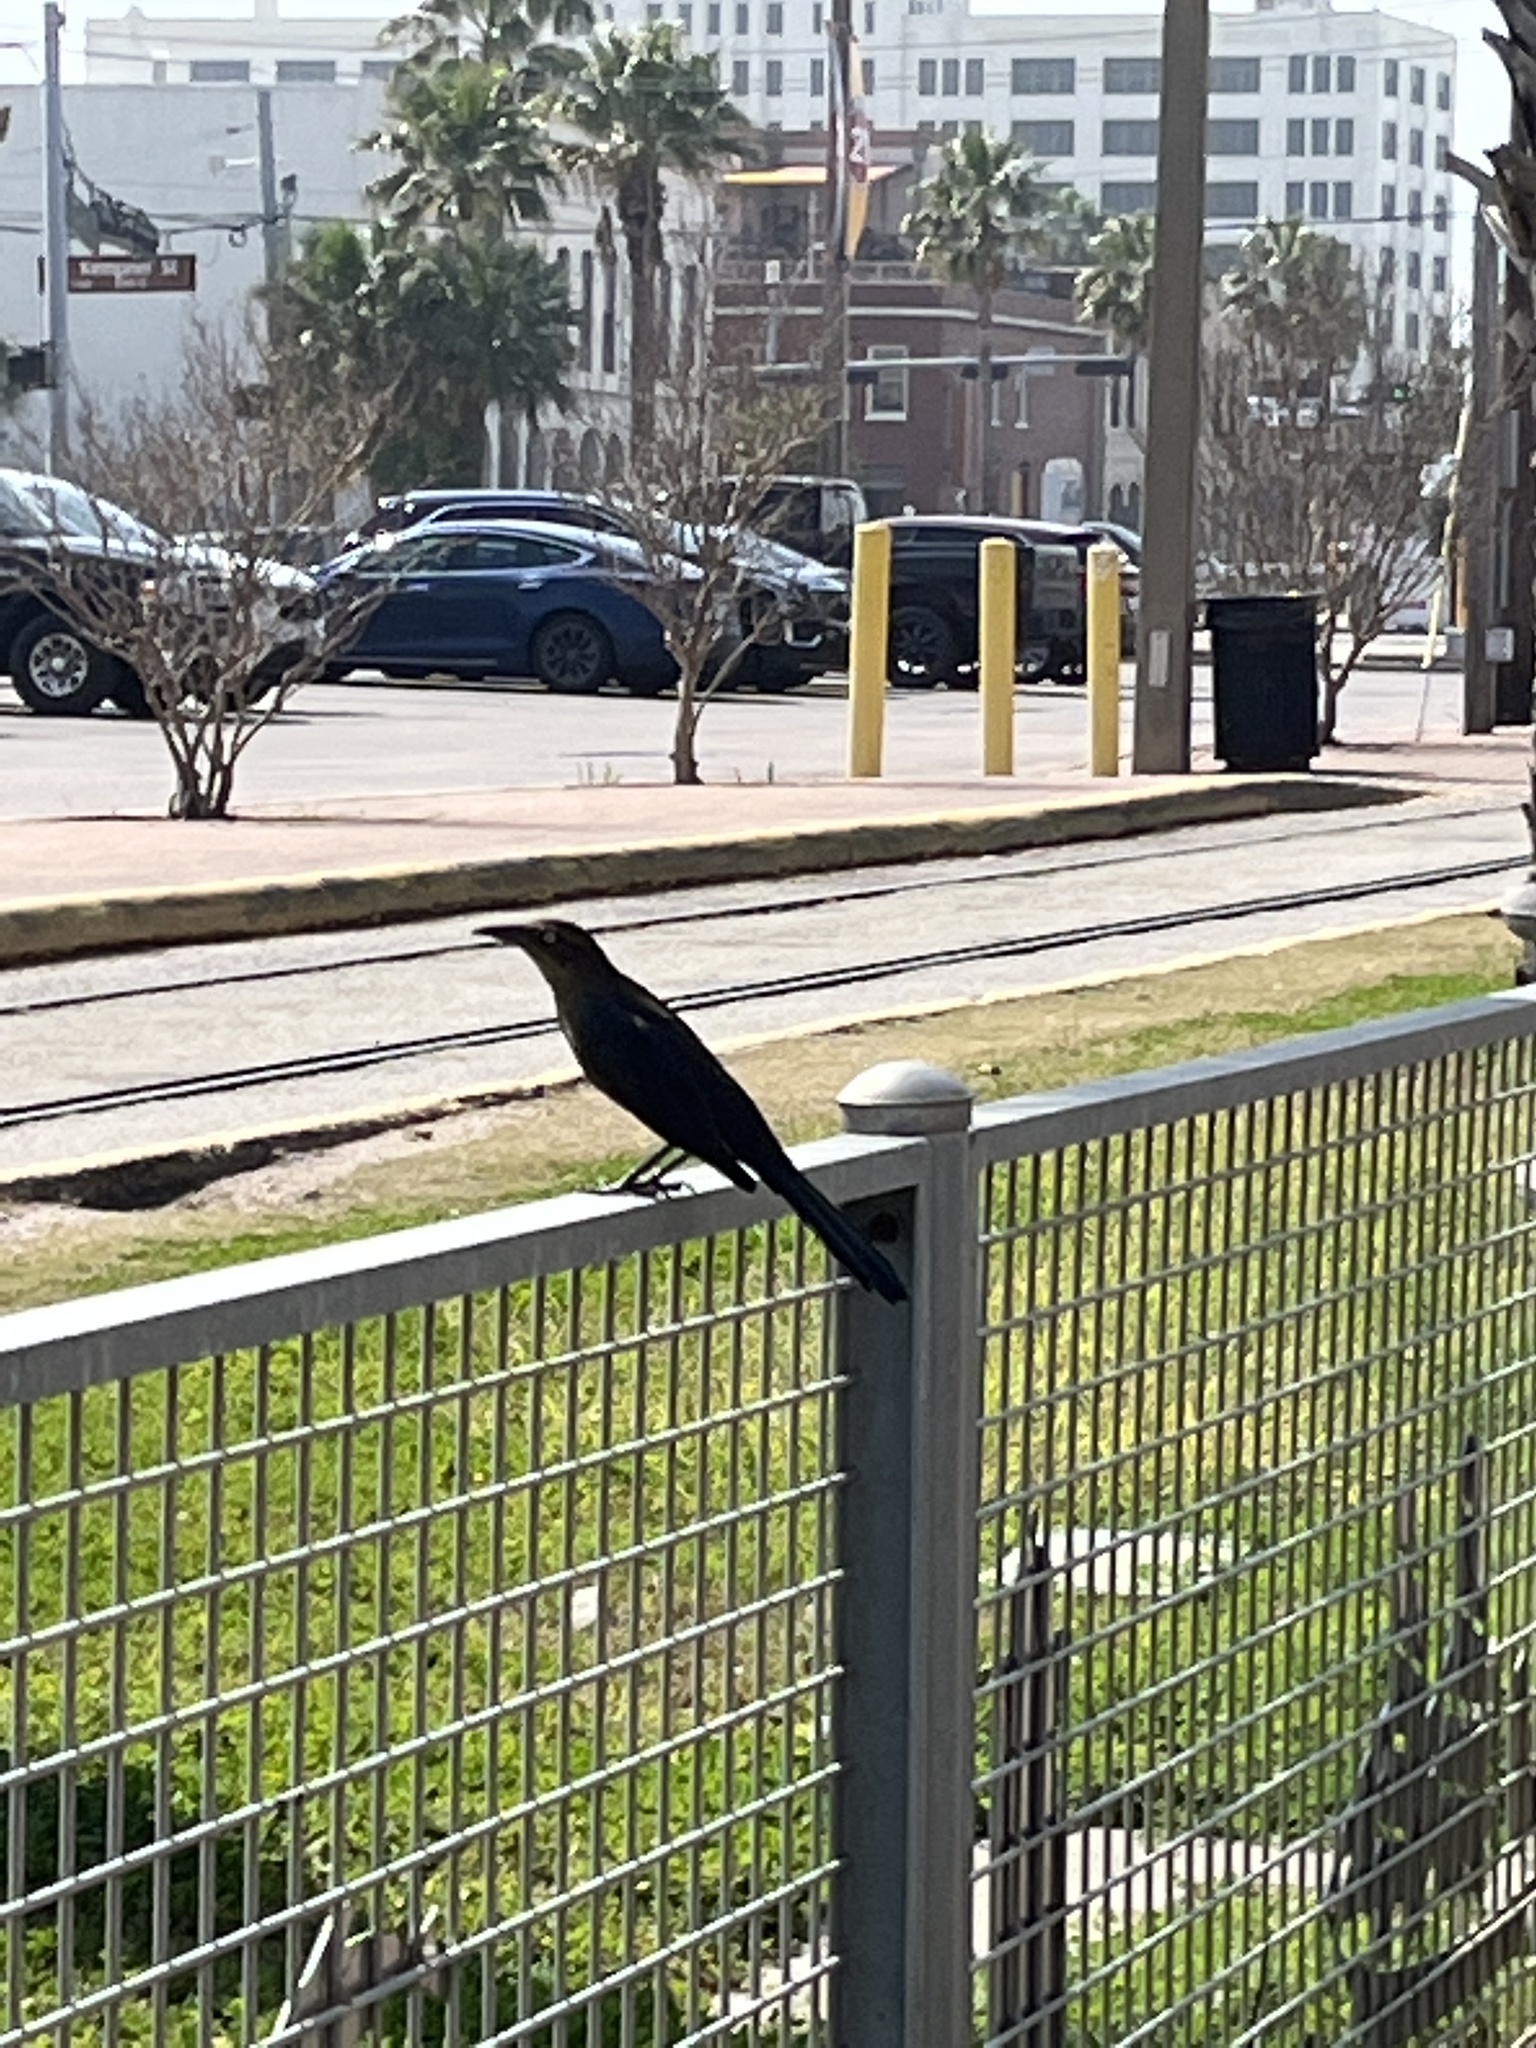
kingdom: Animalia
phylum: Chordata
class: Aves
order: Passeriformes
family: Icteridae
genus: Quiscalus
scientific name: Quiscalus mexicanus
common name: Great-tailed grackle
